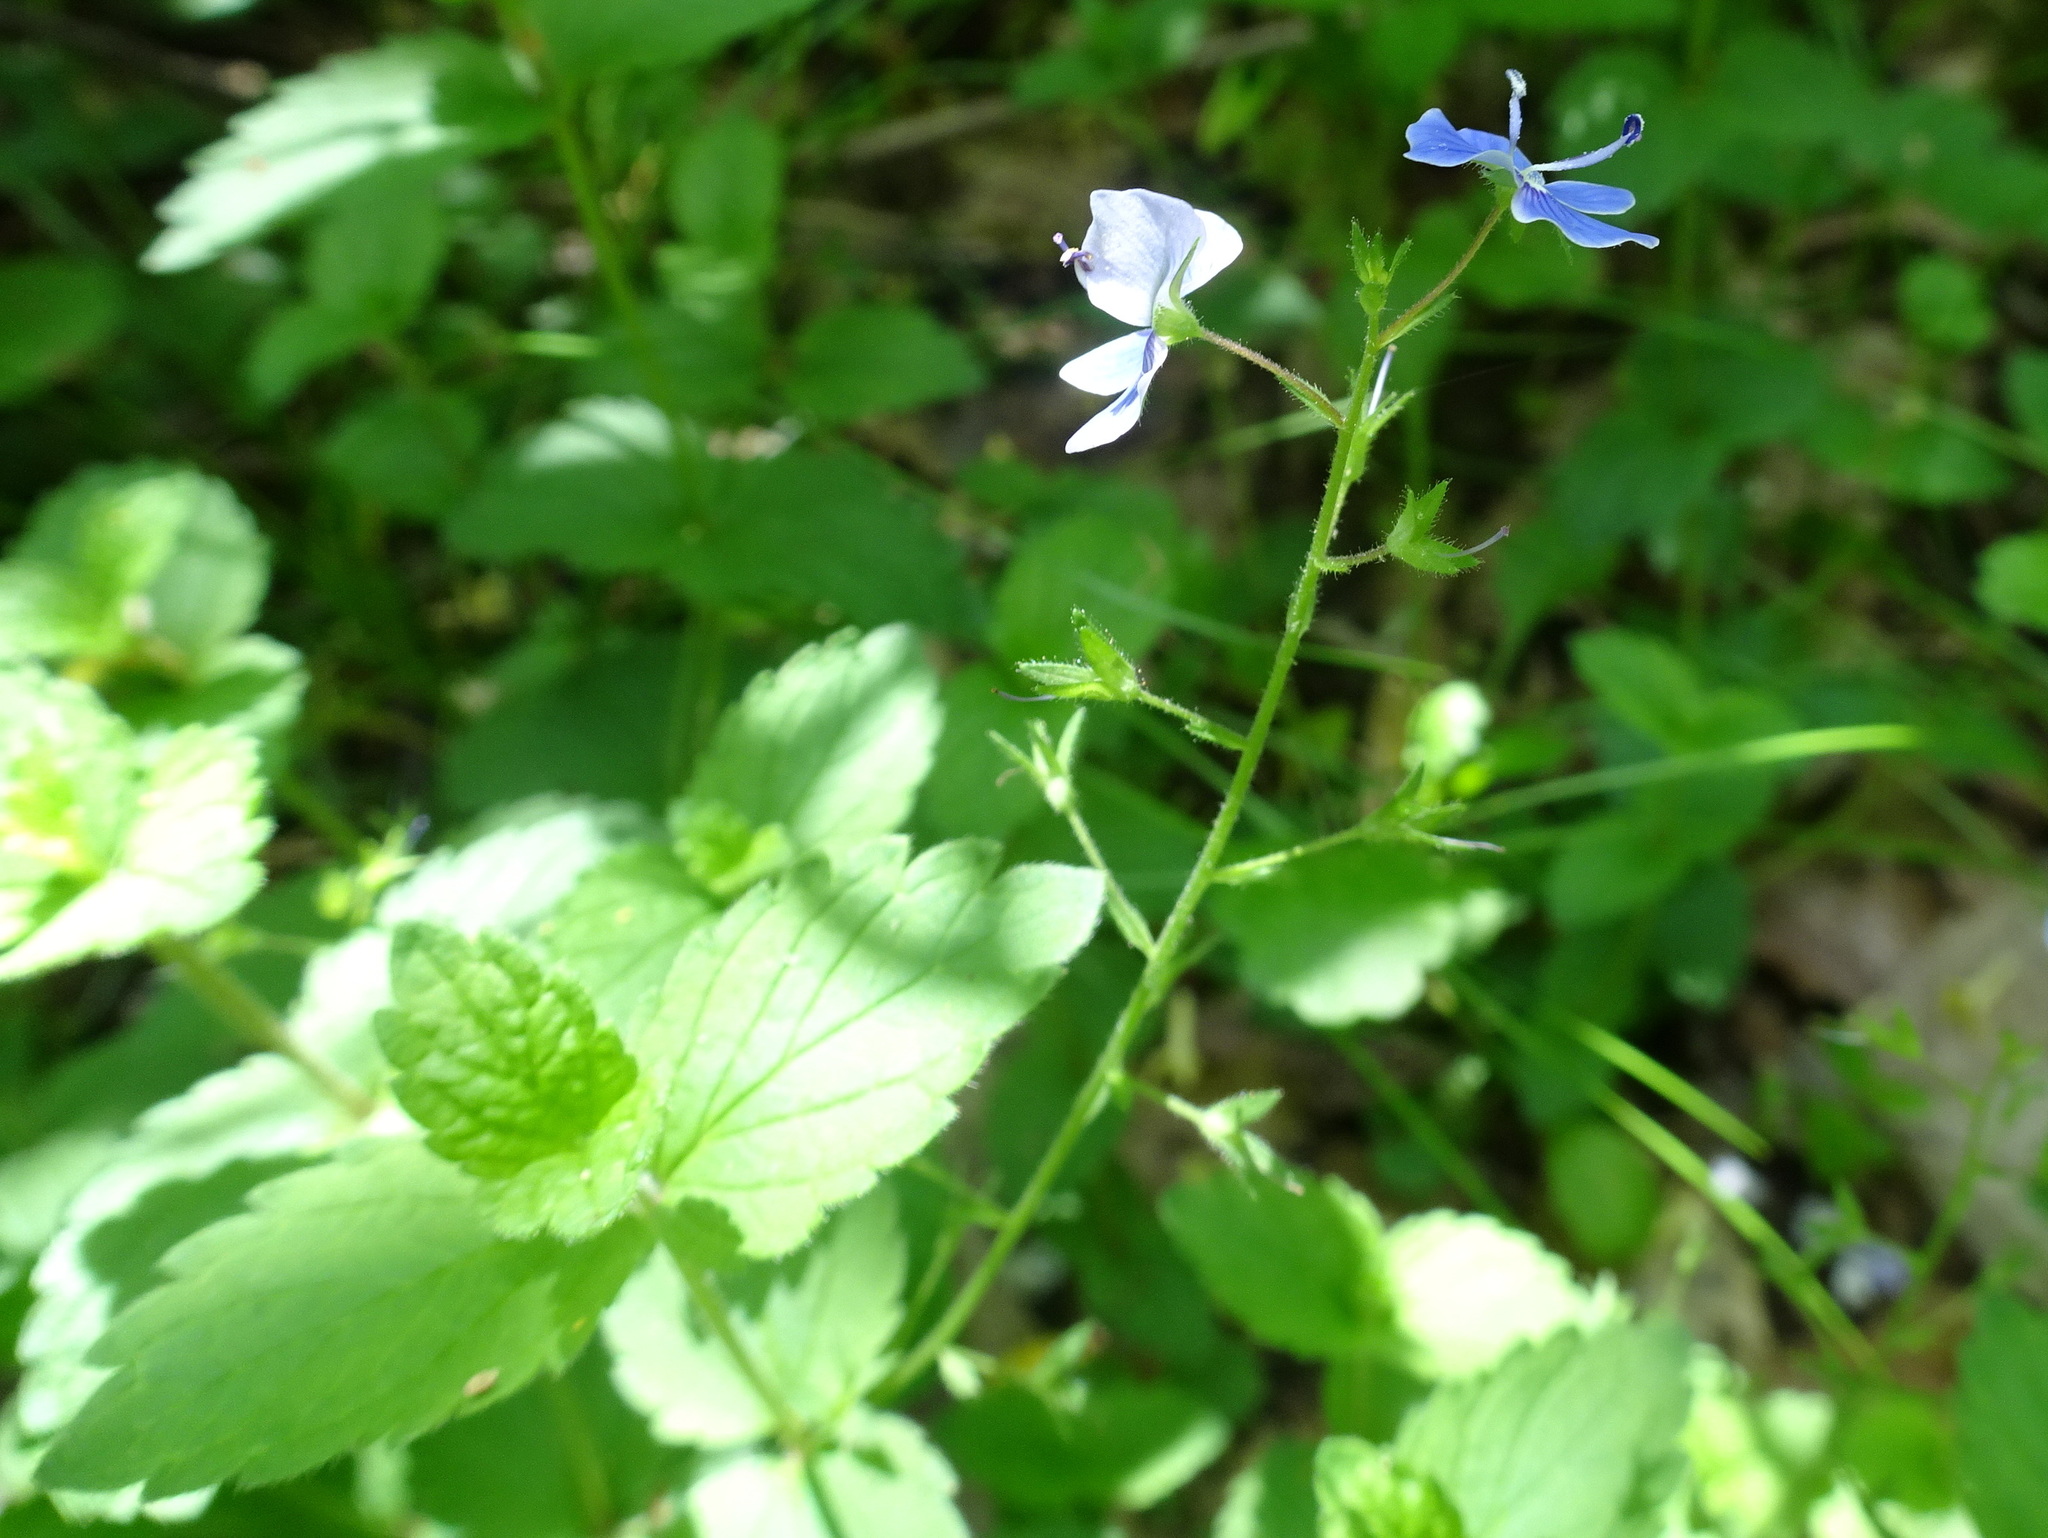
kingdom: Plantae
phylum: Tracheophyta
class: Magnoliopsida
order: Lamiales
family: Plantaginaceae
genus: Veronica
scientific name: Veronica chamaedrys
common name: Germander speedwell
